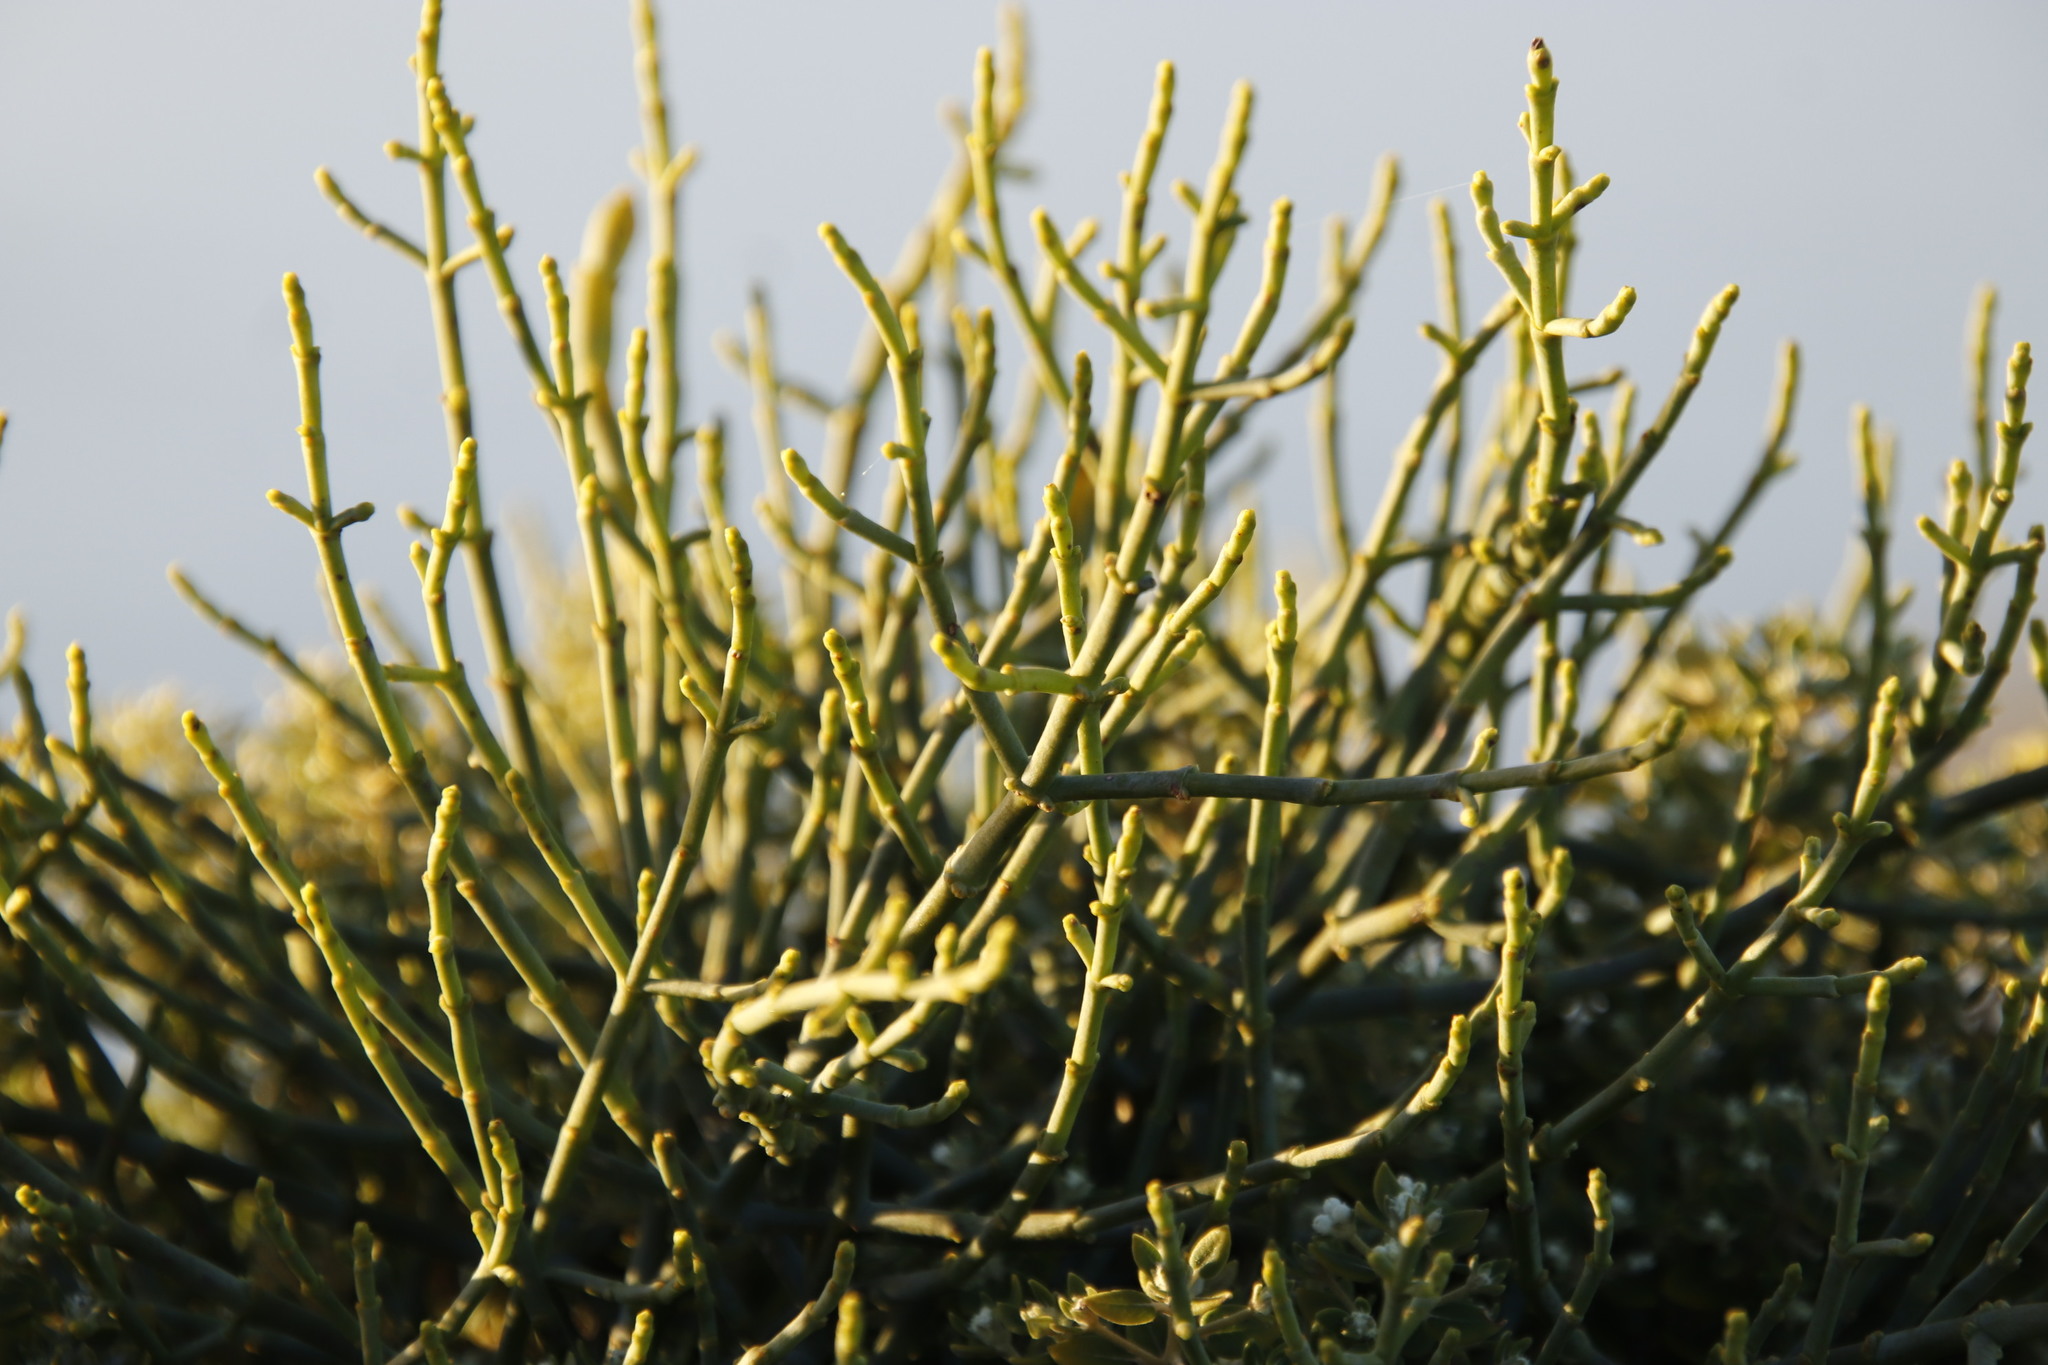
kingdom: Plantae
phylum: Tracheophyta
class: Magnoliopsida
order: Santalales
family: Viscaceae
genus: Viscum
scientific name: Viscum capense
